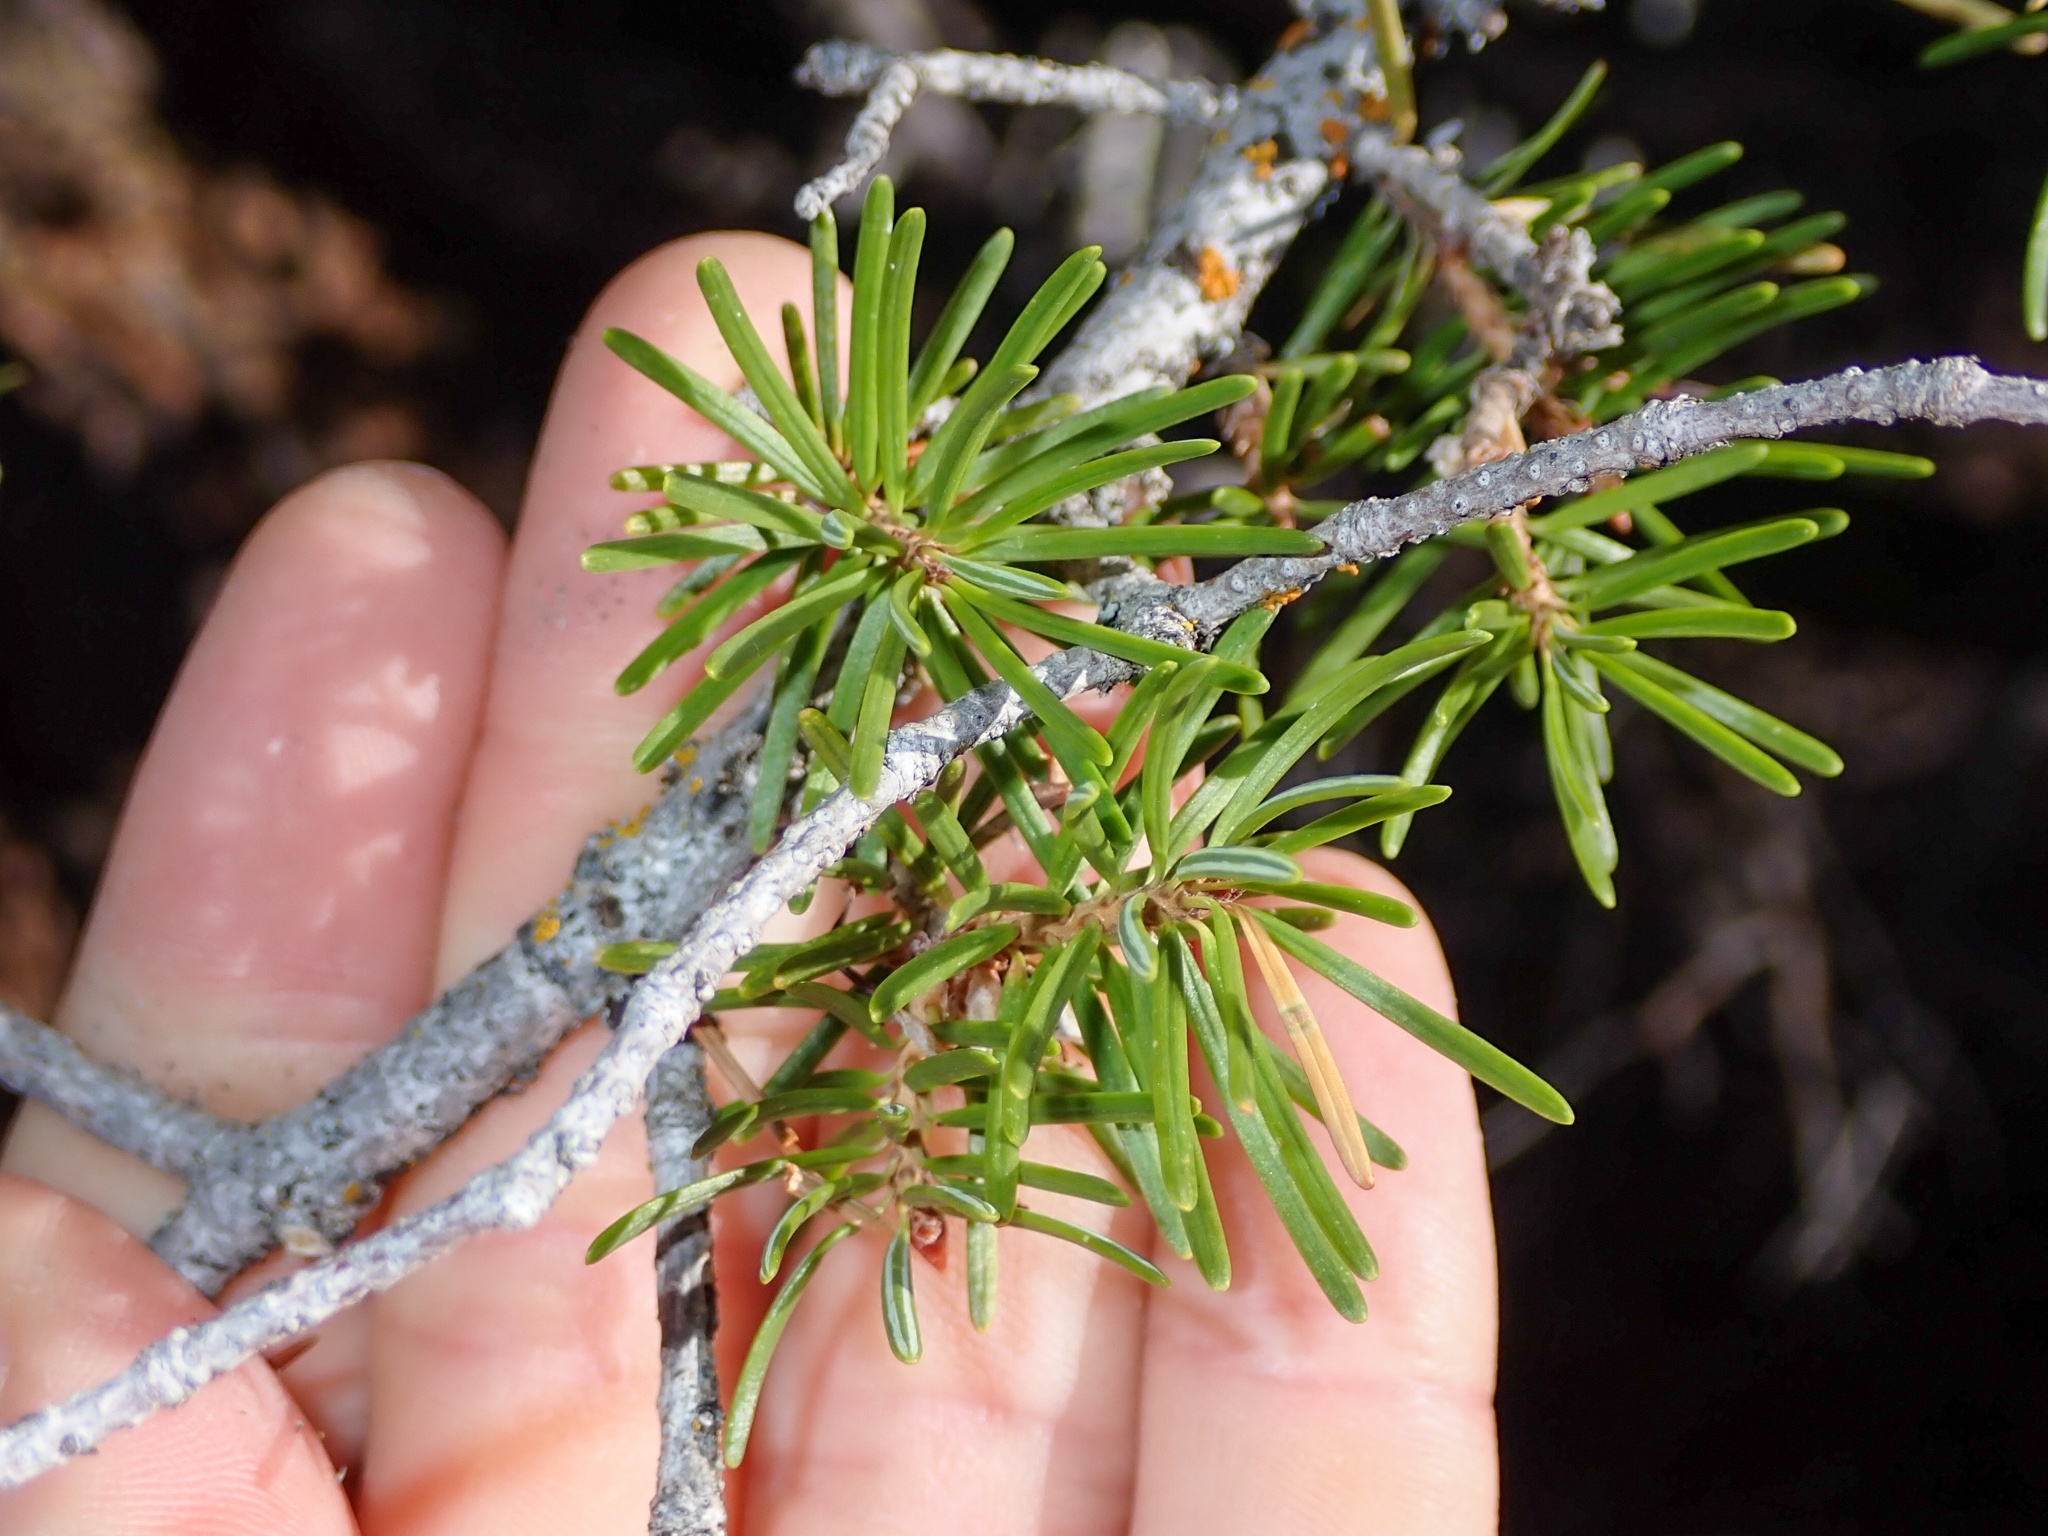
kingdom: Plantae
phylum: Tracheophyta
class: Pinopsida
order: Pinales
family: Pinaceae
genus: Pseudotsuga
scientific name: Pseudotsuga menziesii
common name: Douglas fir
